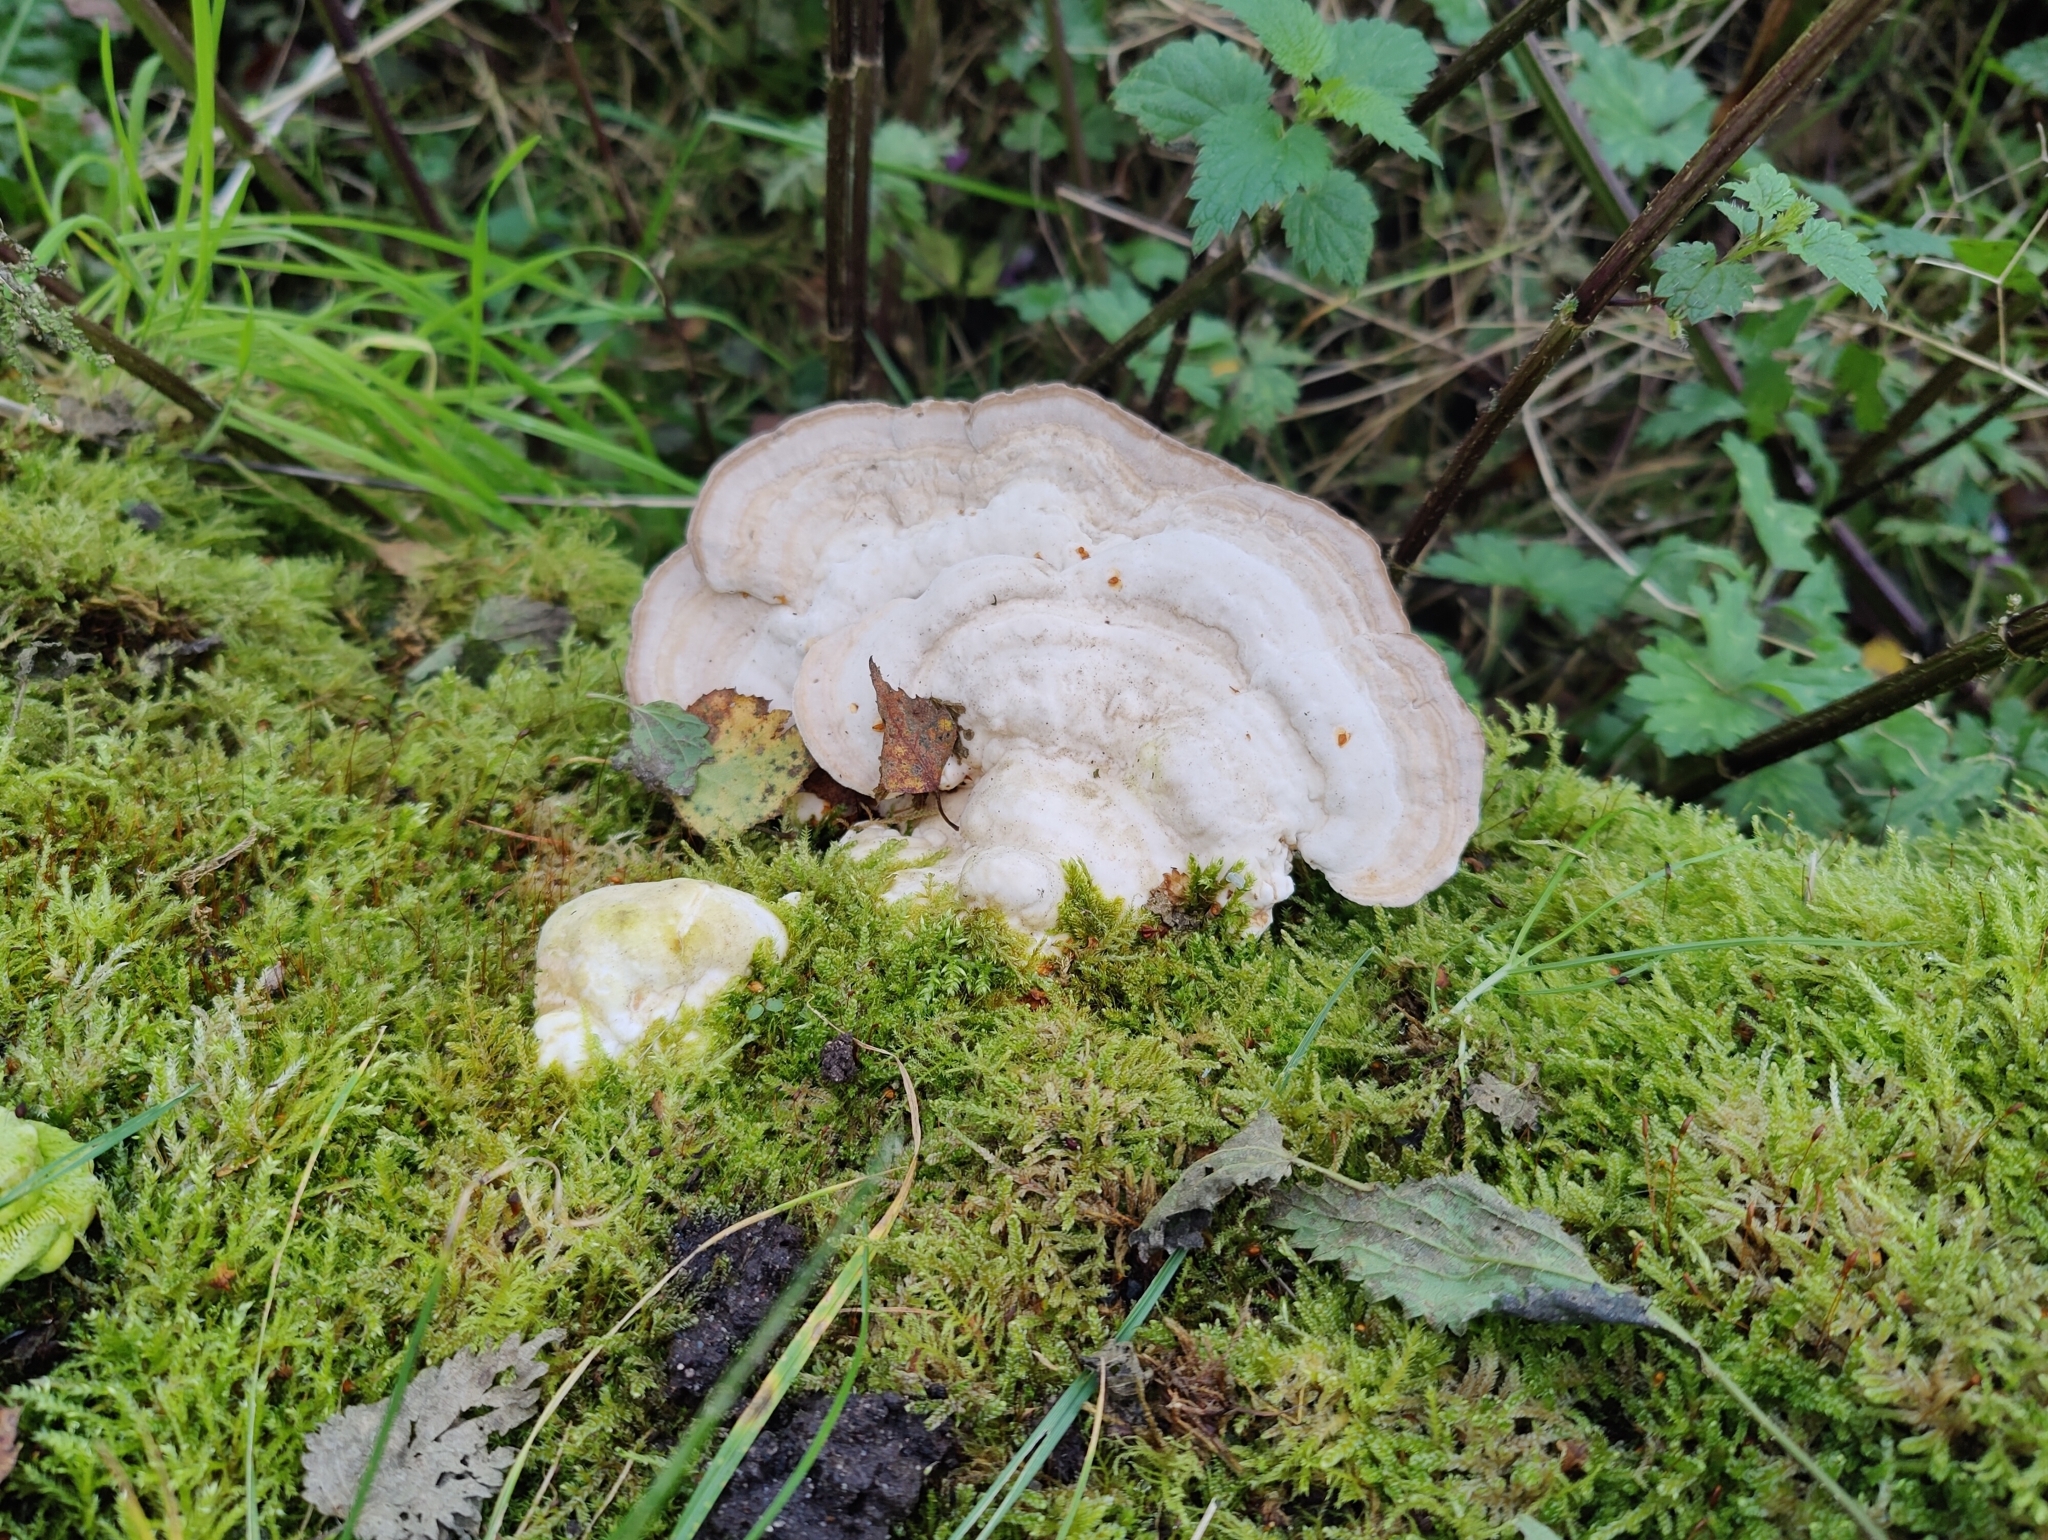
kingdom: Fungi
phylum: Basidiomycota
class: Agaricomycetes
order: Polyporales
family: Polyporaceae
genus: Trametes
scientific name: Trametes gibbosa
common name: Lumpy bracket
